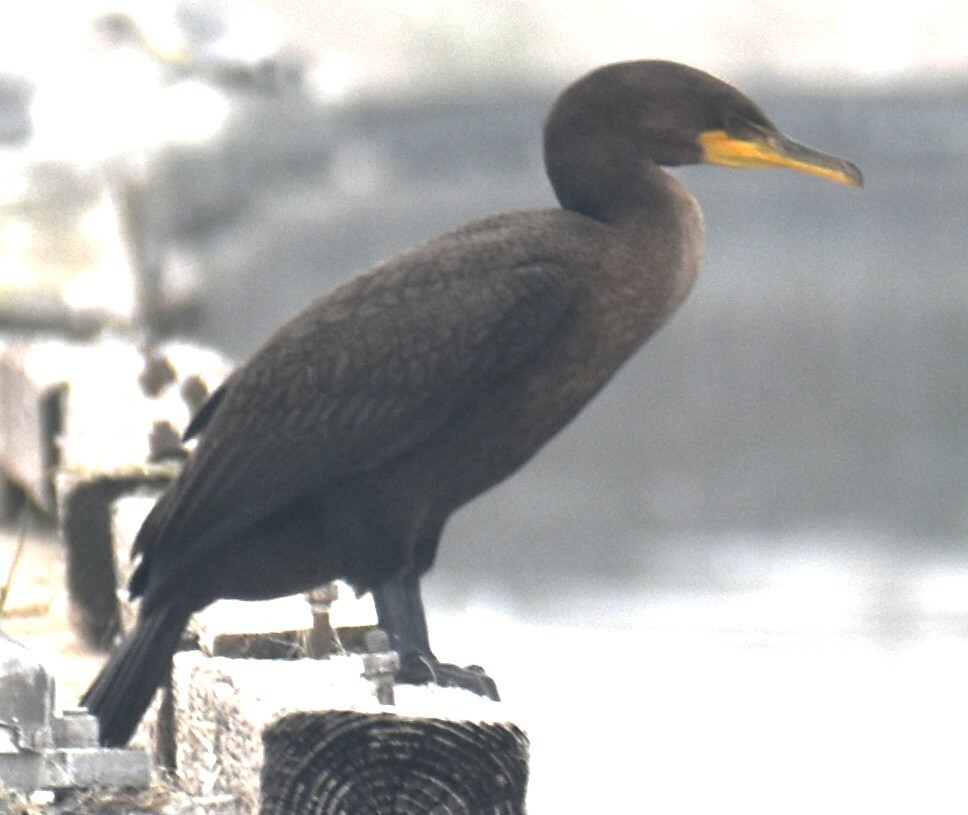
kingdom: Animalia
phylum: Chordata
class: Aves
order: Suliformes
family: Phalacrocoracidae
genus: Phalacrocorax
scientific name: Phalacrocorax auritus
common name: Double-crested cormorant
